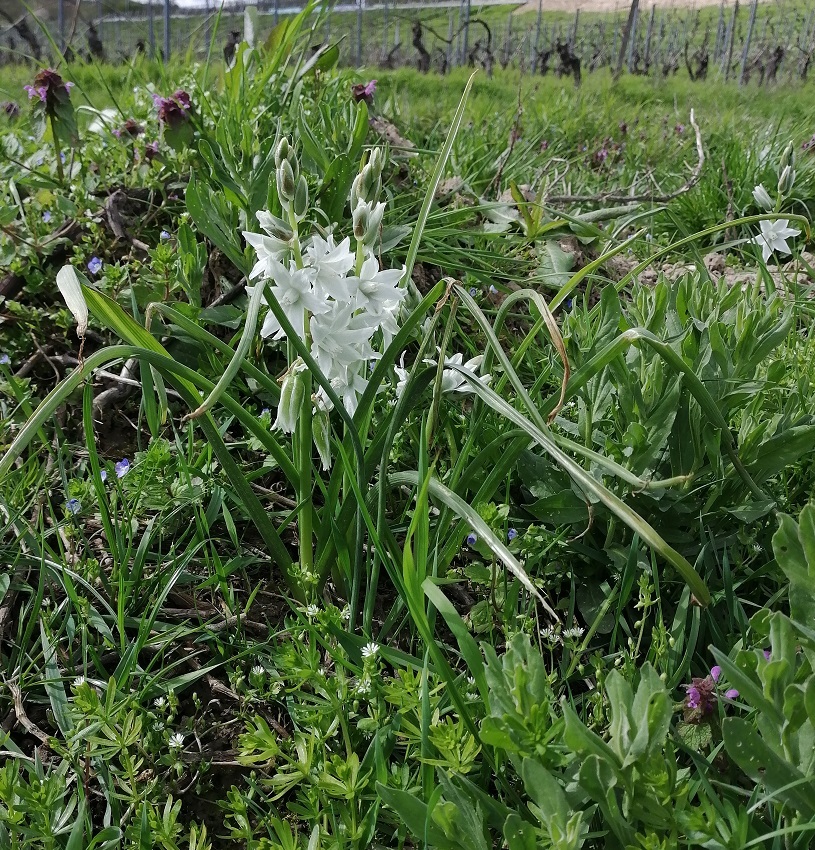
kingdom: Plantae
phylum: Tracheophyta
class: Liliopsida
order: Asparagales
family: Asparagaceae
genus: Ornithogalum
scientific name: Ornithogalum nutans
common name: Drooping star-of-bethlehem
